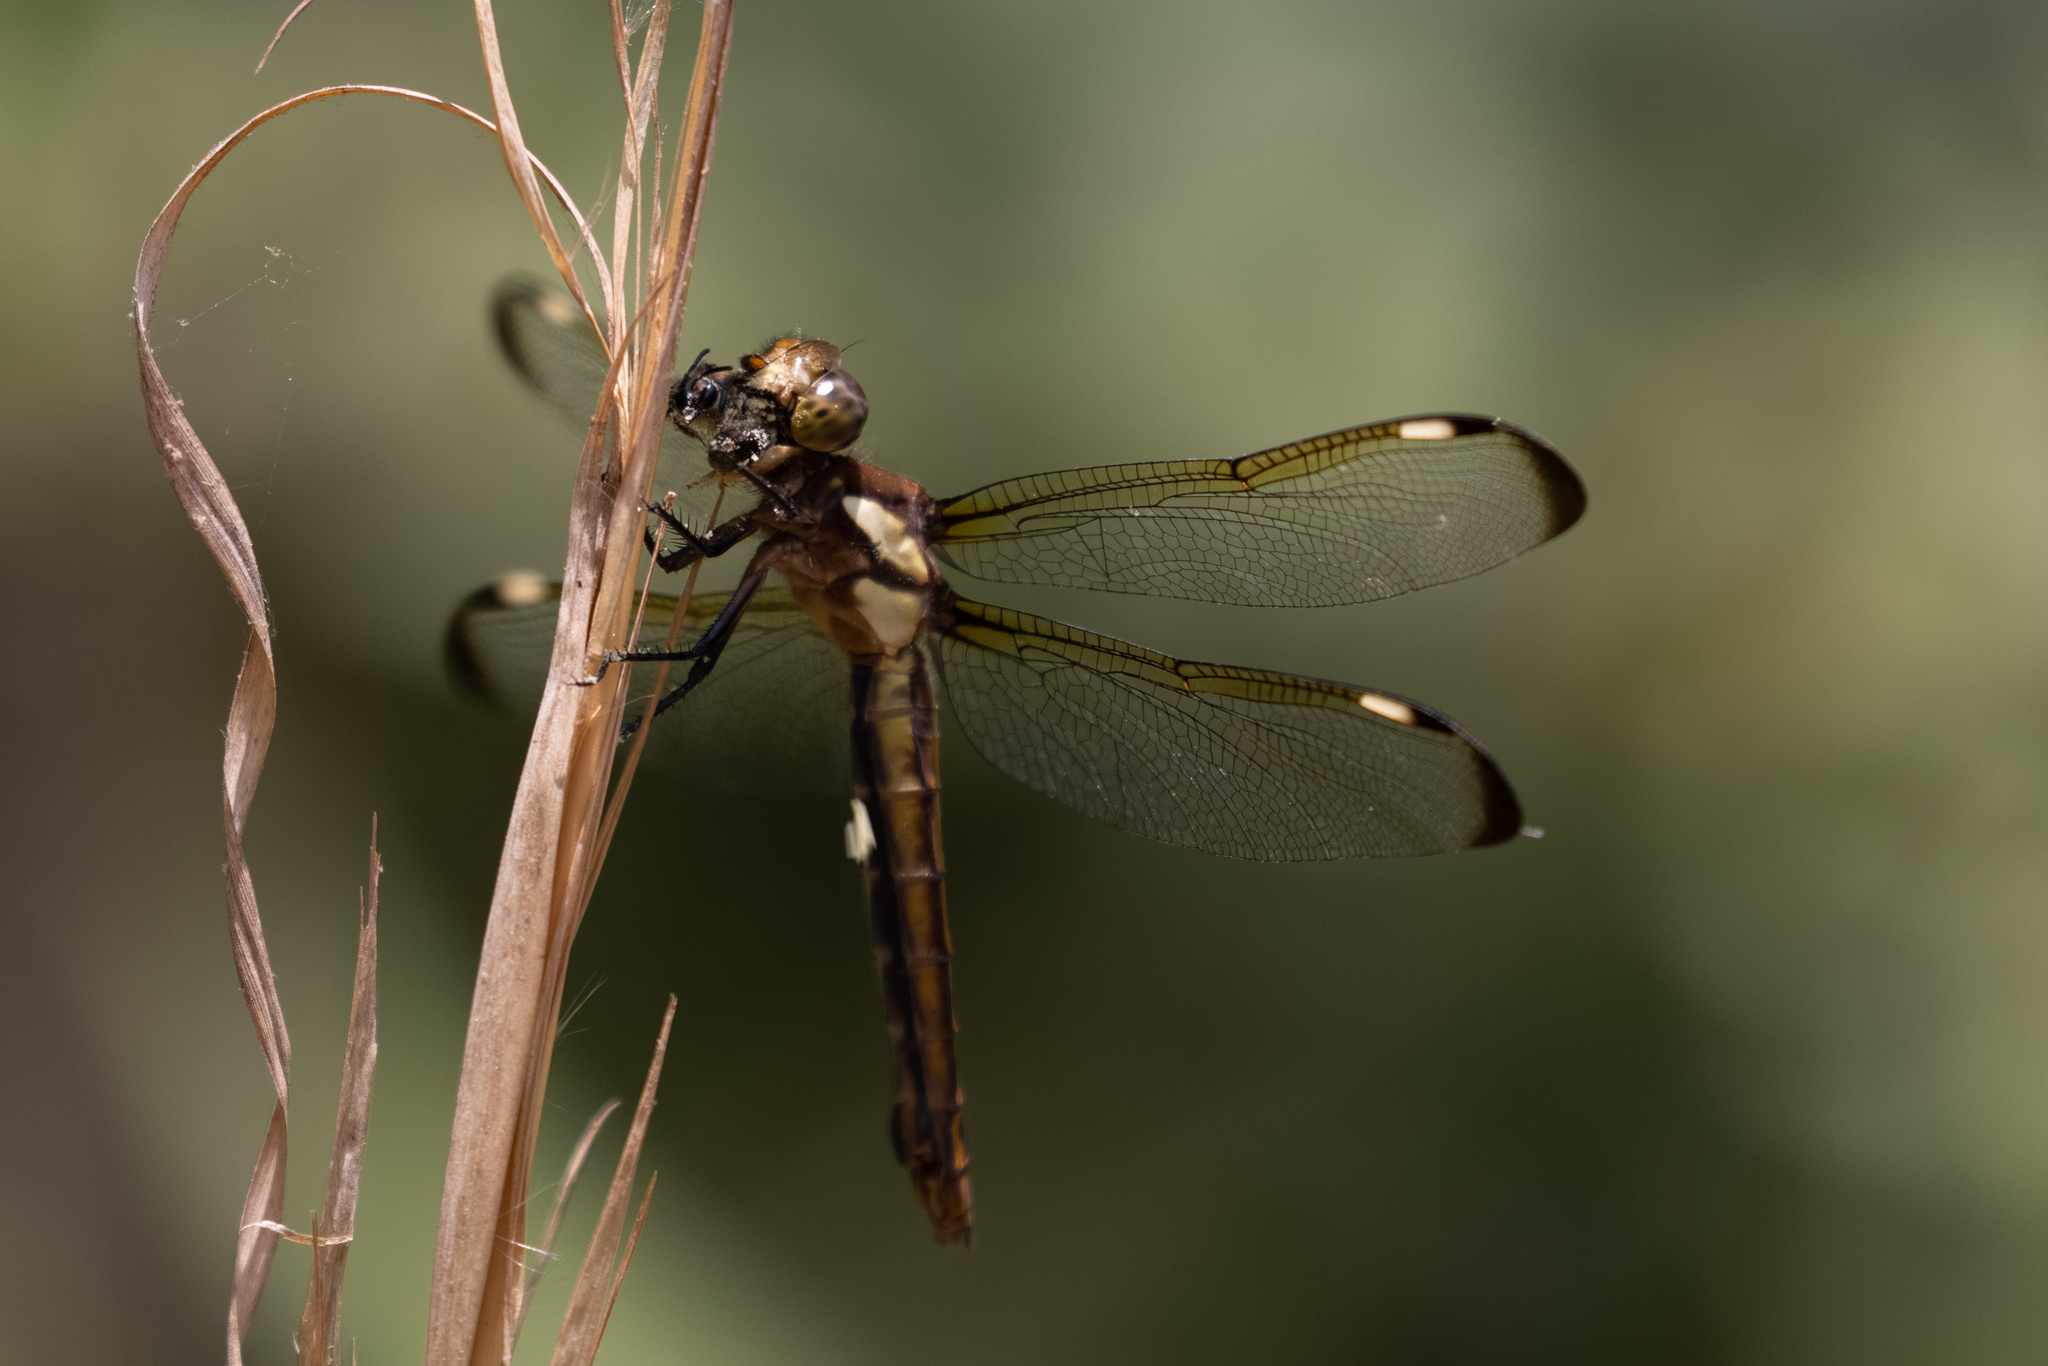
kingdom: Animalia
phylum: Arthropoda
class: Insecta
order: Odonata
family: Libellulidae
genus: Libellula
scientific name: Libellula cyanea
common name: Spangled skimmer
